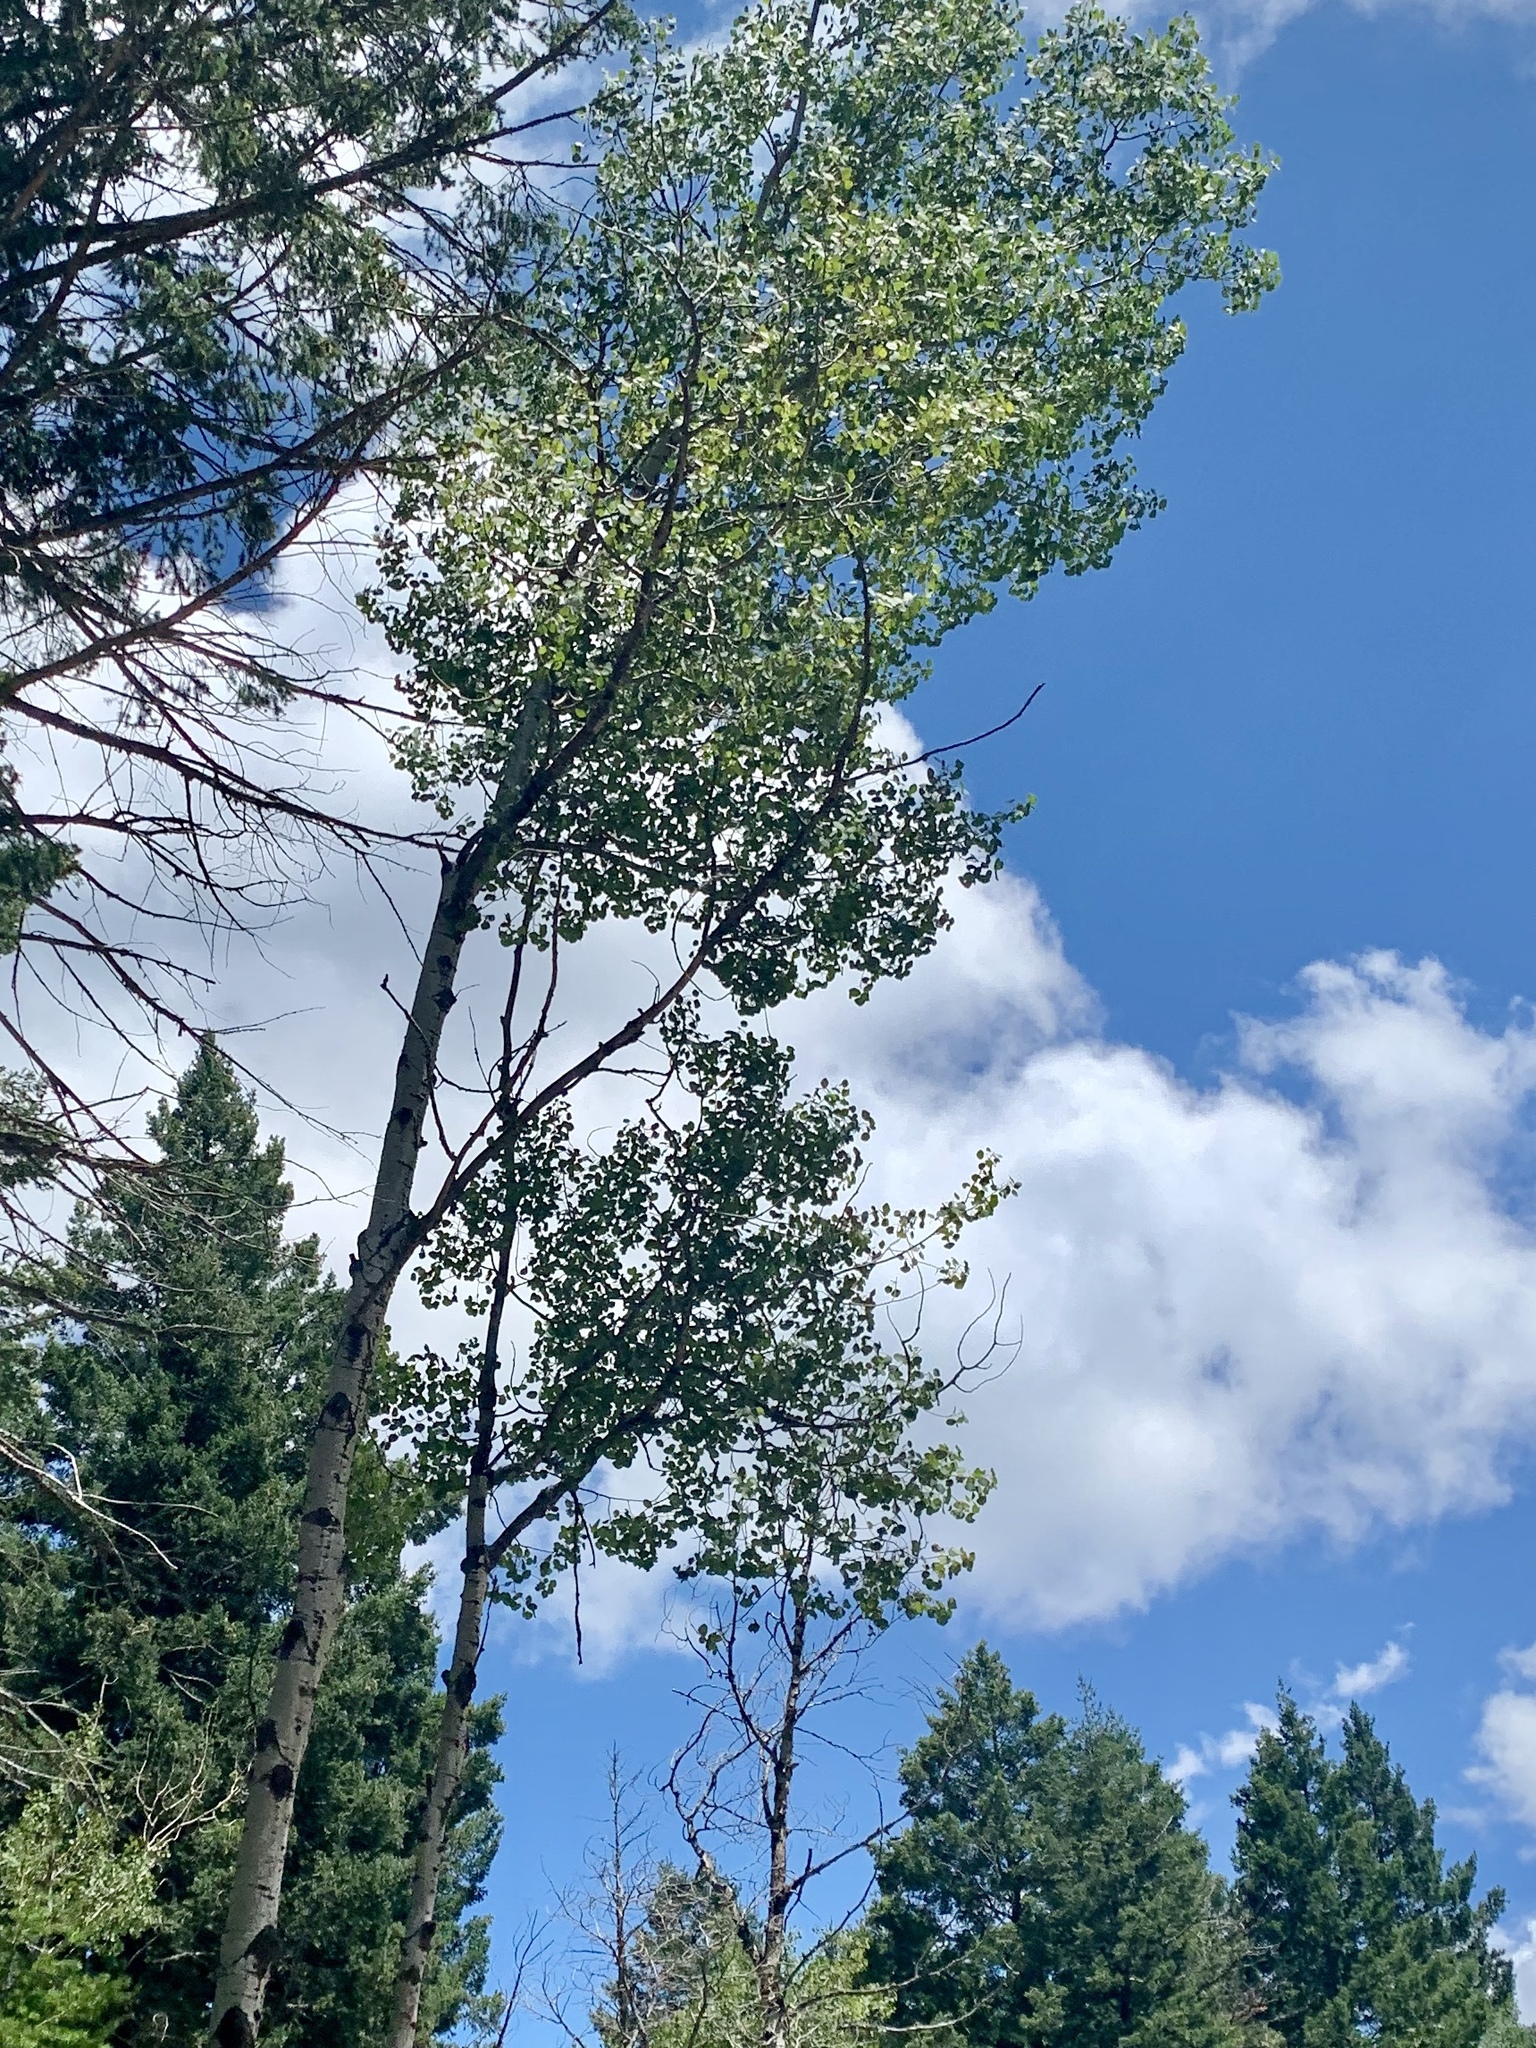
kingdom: Plantae
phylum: Tracheophyta
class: Magnoliopsida
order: Malpighiales
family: Salicaceae
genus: Populus
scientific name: Populus tremuloides
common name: Quaking aspen
